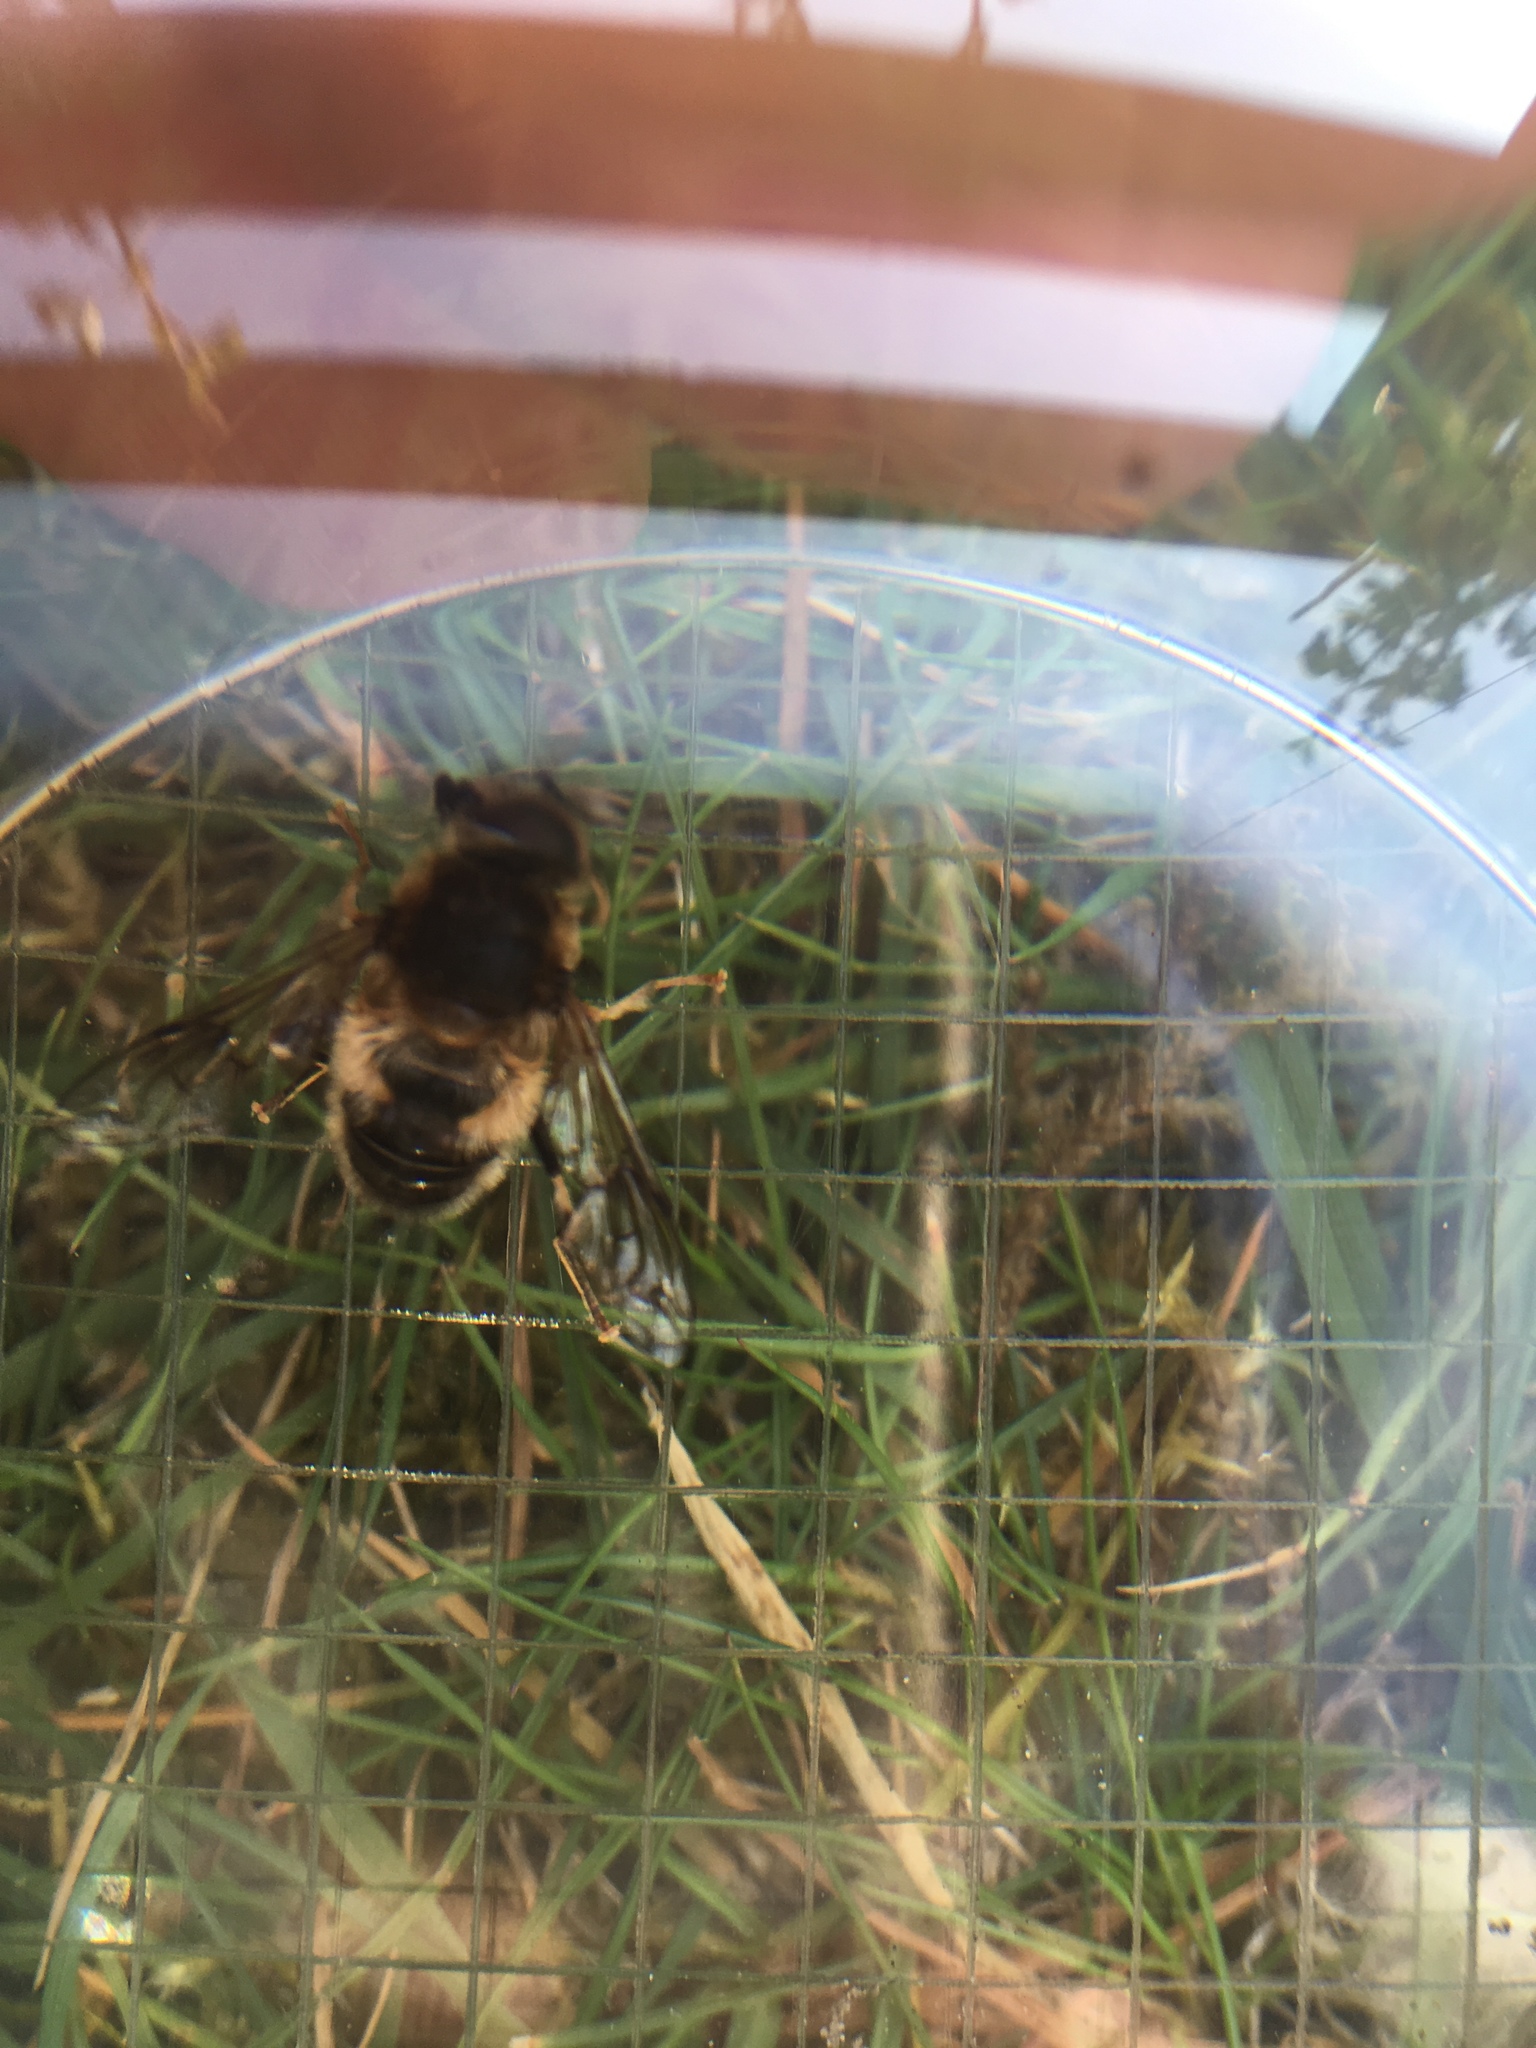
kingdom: Animalia
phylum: Arthropoda
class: Insecta
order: Diptera
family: Syrphidae
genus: Eristalis
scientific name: Eristalis pertinax
